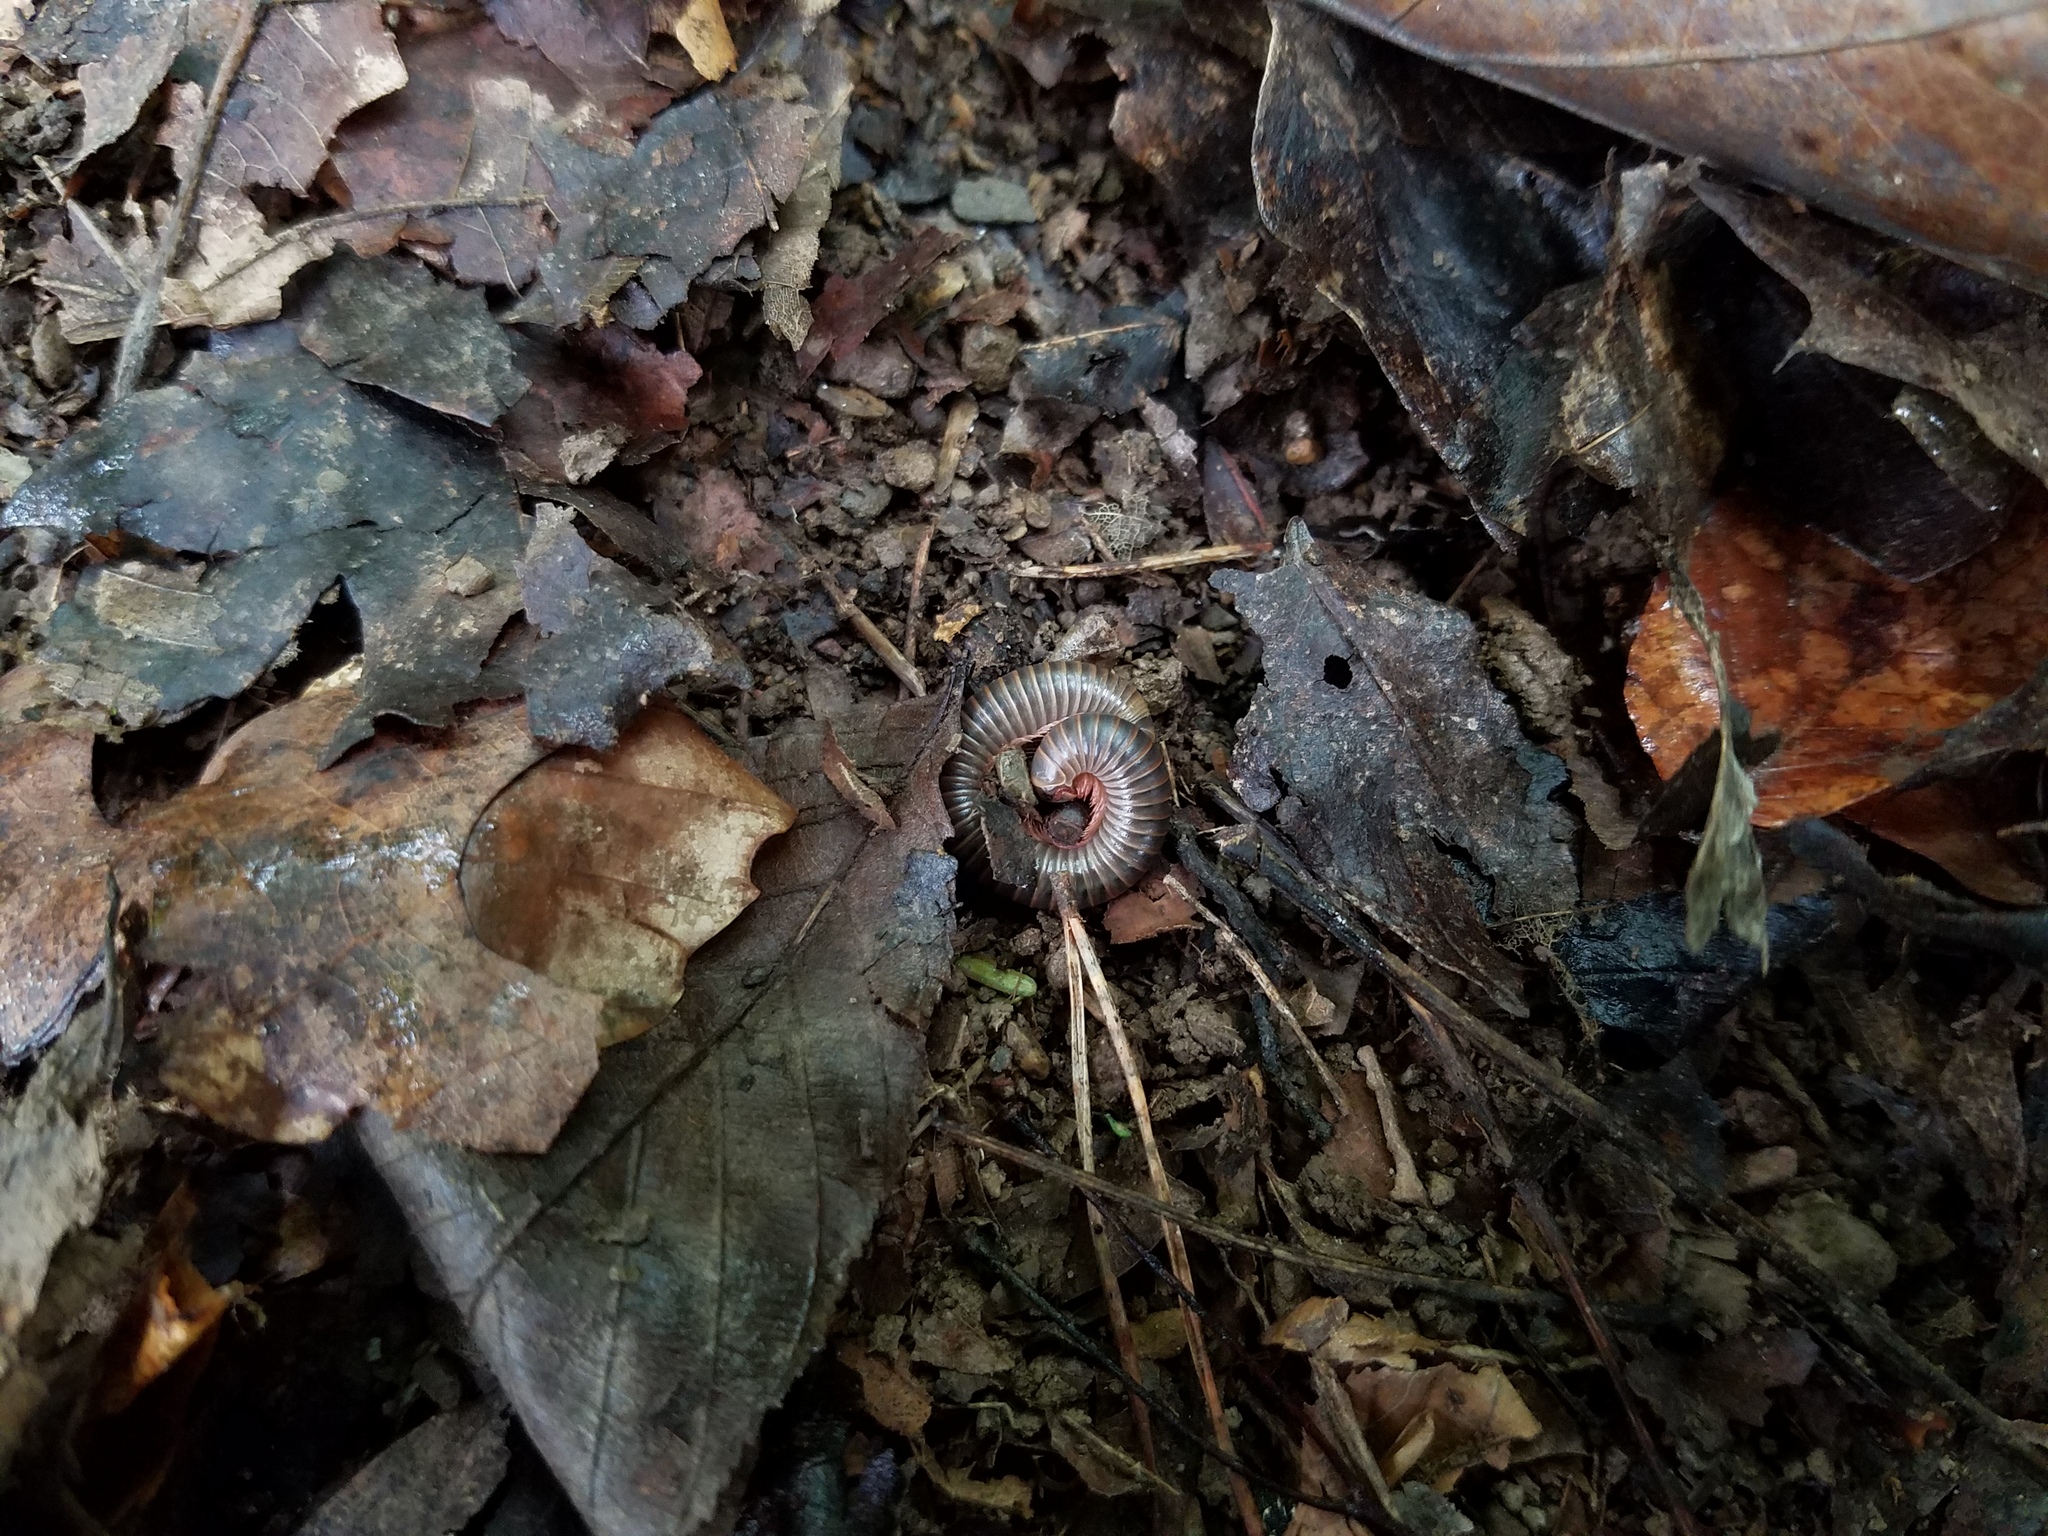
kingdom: Animalia
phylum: Arthropoda
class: Diplopoda
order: Spirobolida
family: Spirobolidae
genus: Narceus
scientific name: Narceus
